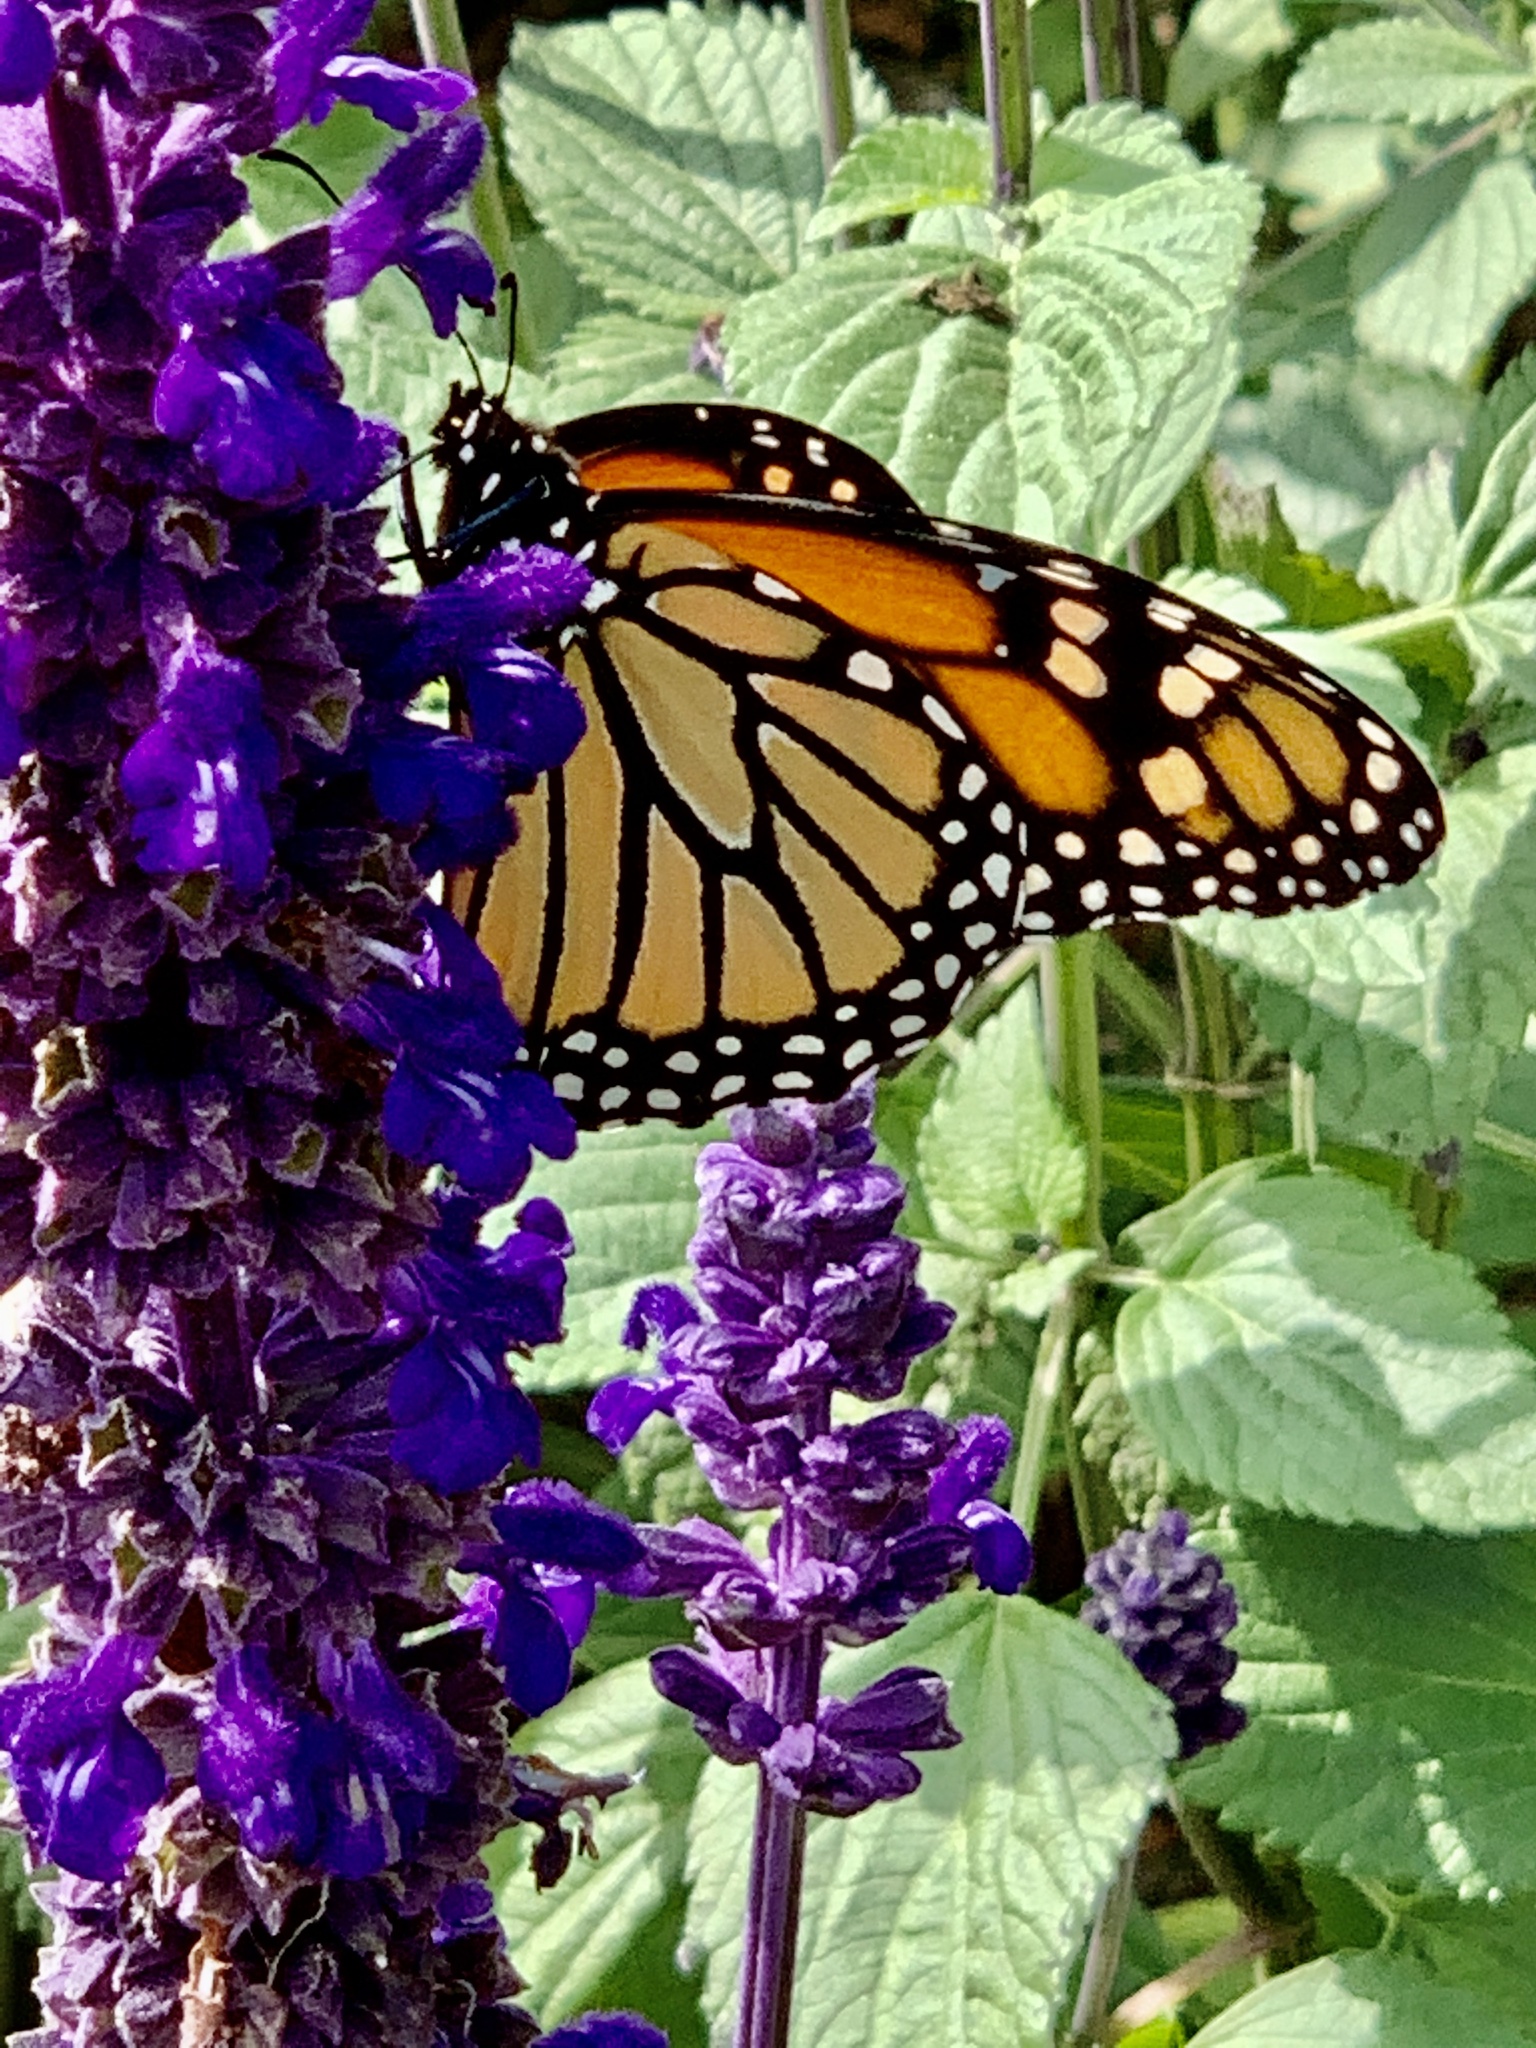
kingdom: Animalia
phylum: Arthropoda
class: Insecta
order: Lepidoptera
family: Nymphalidae
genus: Danaus
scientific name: Danaus plexippus
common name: Monarch
